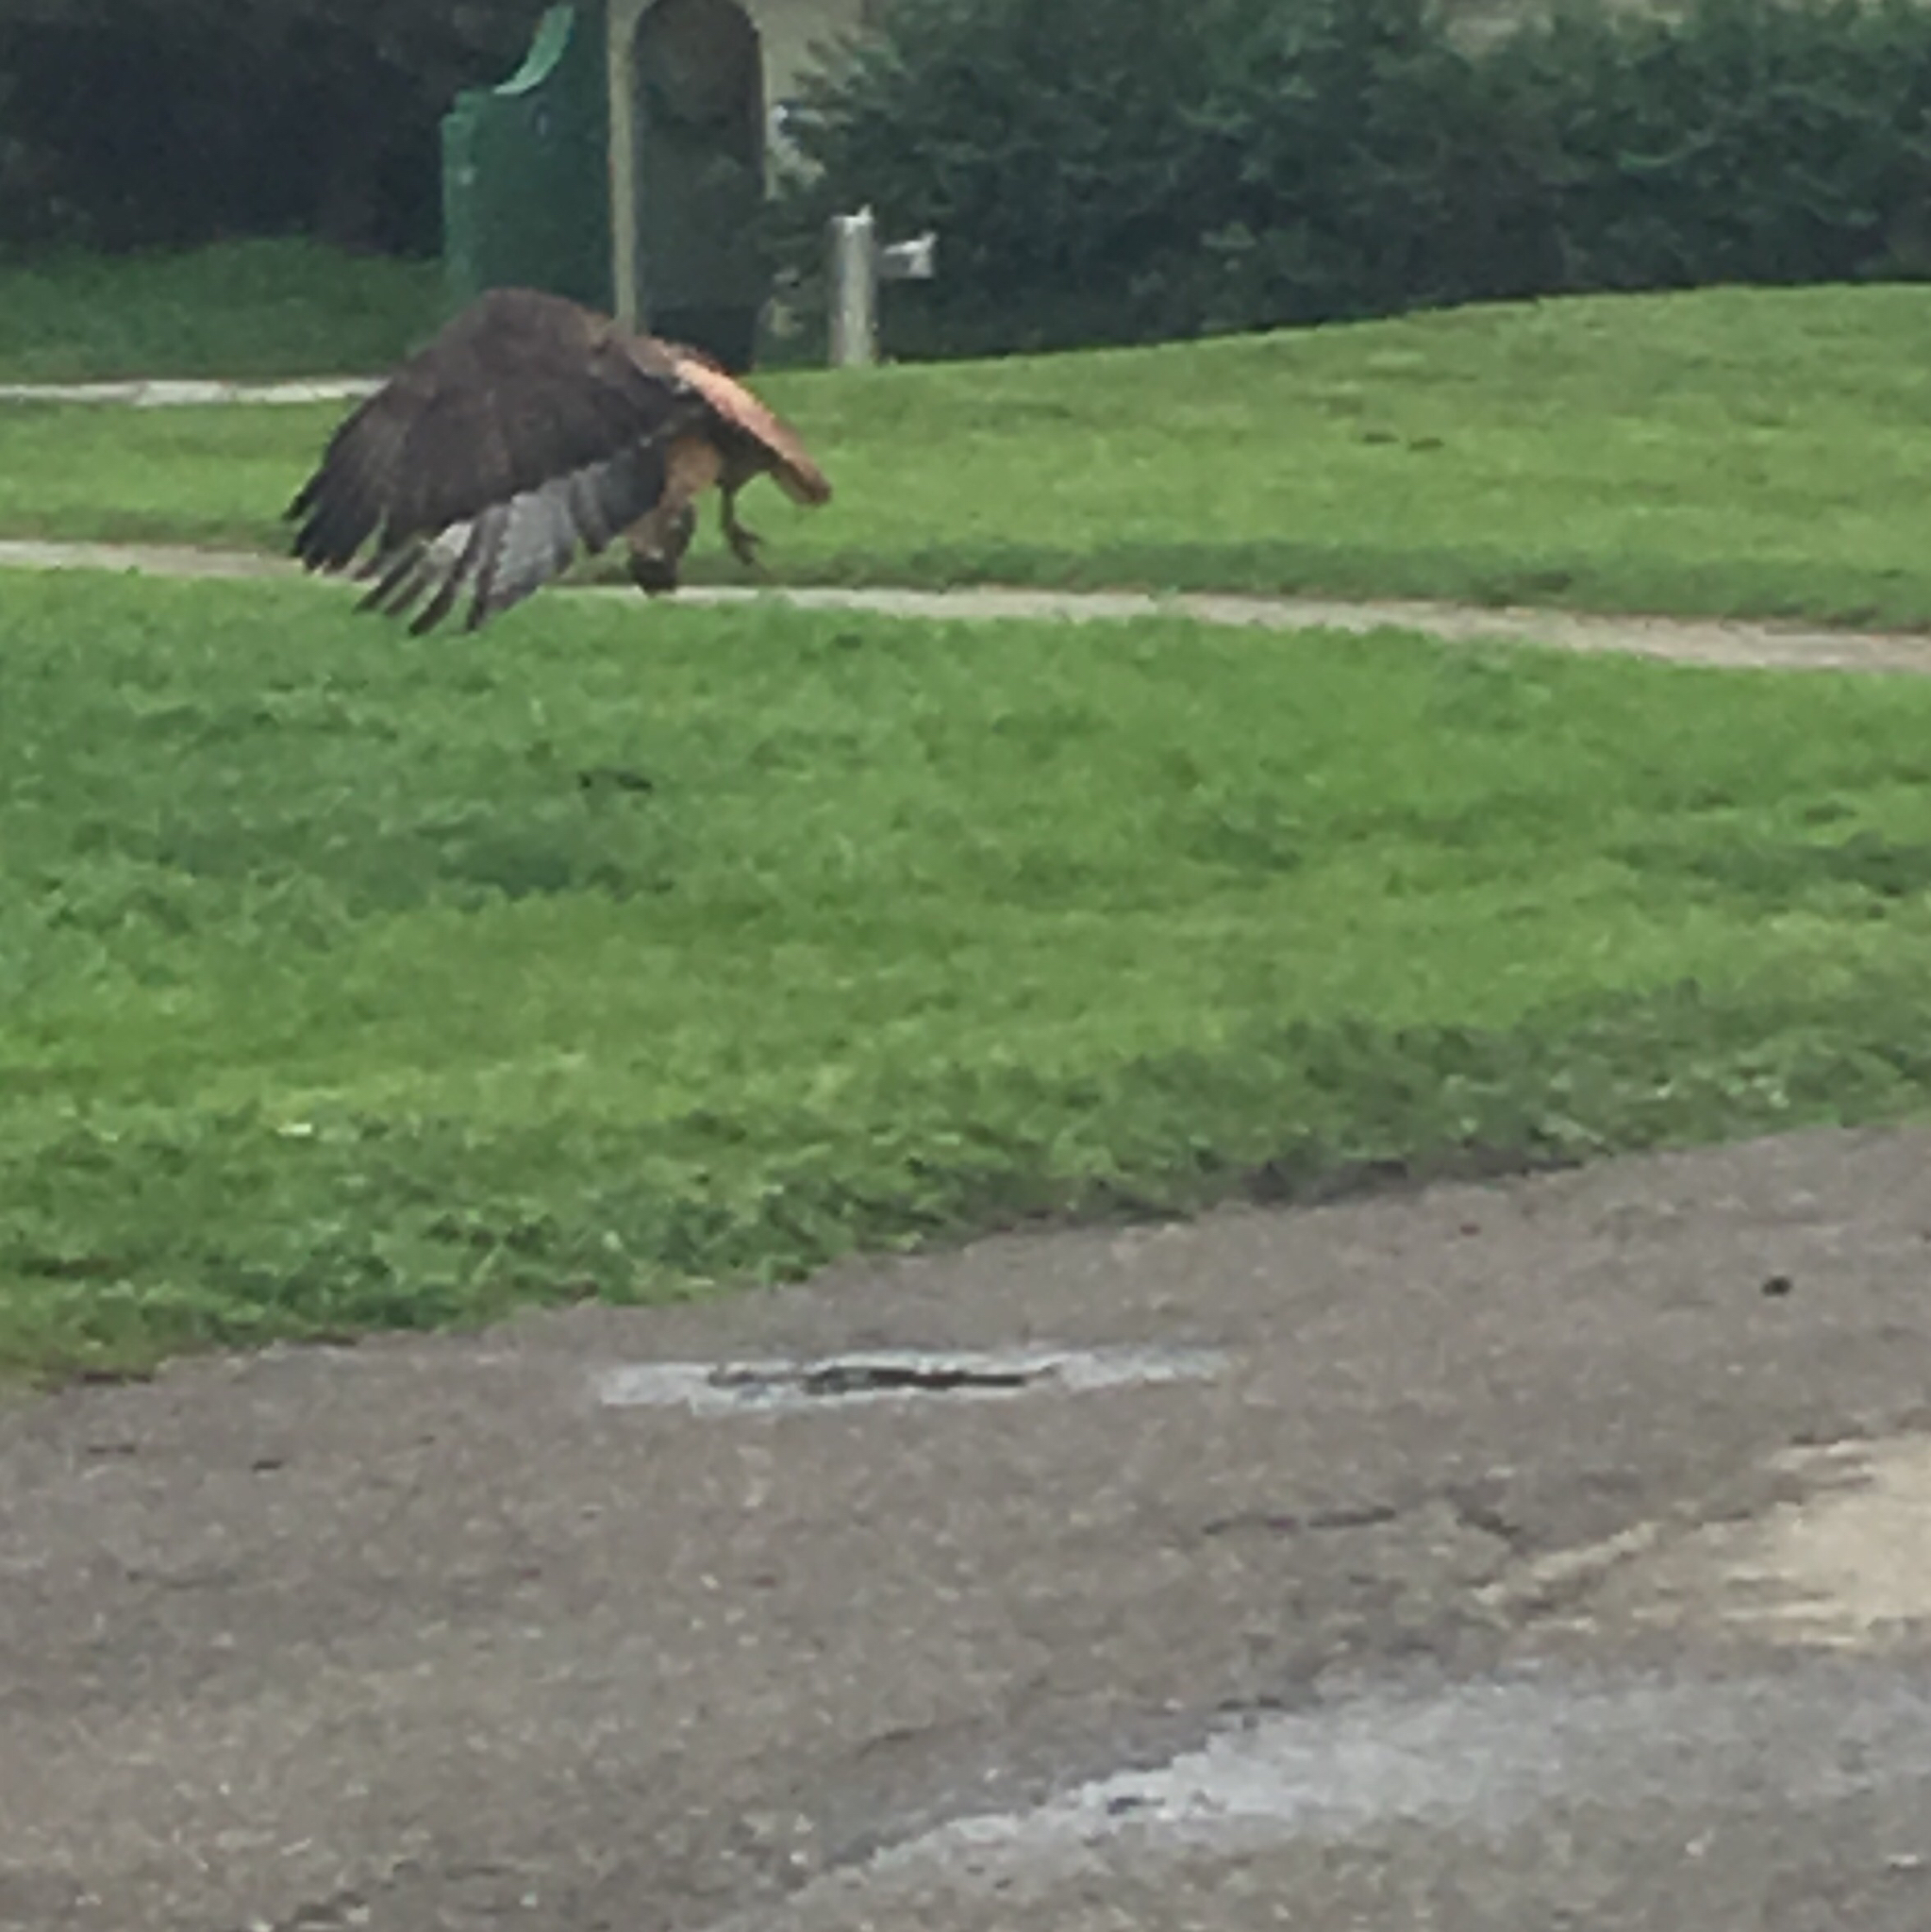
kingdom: Animalia
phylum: Chordata
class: Aves
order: Accipitriformes
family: Accipitridae
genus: Buteo
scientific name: Buteo jamaicensis
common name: Red-tailed hawk
